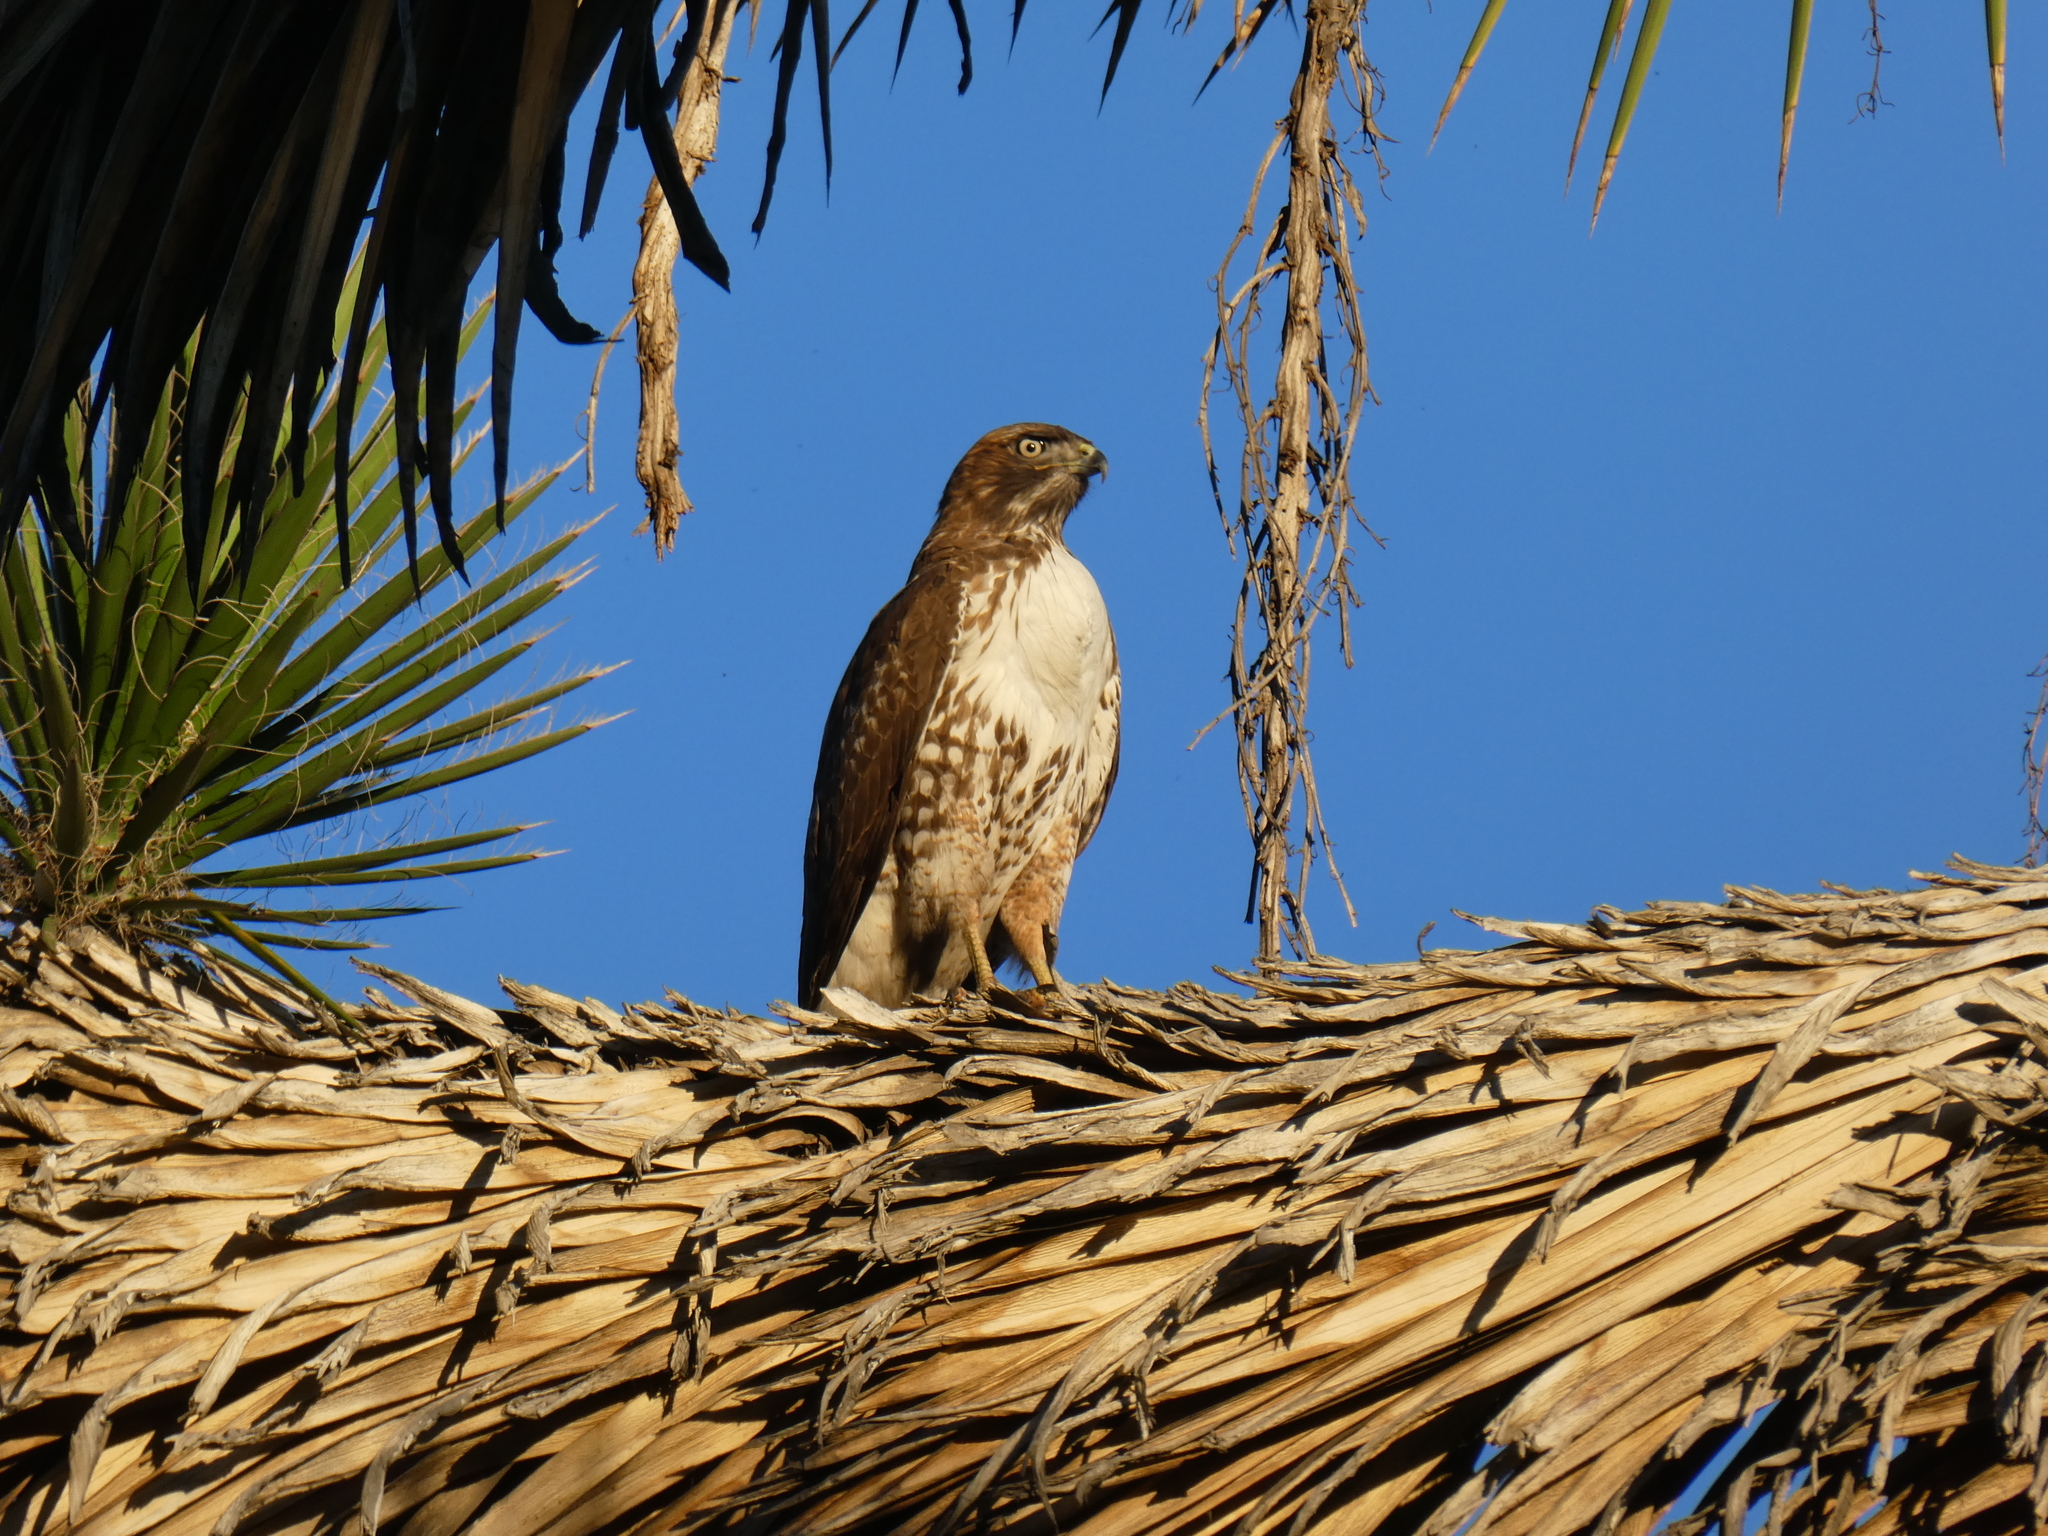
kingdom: Animalia
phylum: Chordata
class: Aves
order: Accipitriformes
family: Accipitridae
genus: Buteo
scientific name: Buteo jamaicensis
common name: Red-tailed hawk
